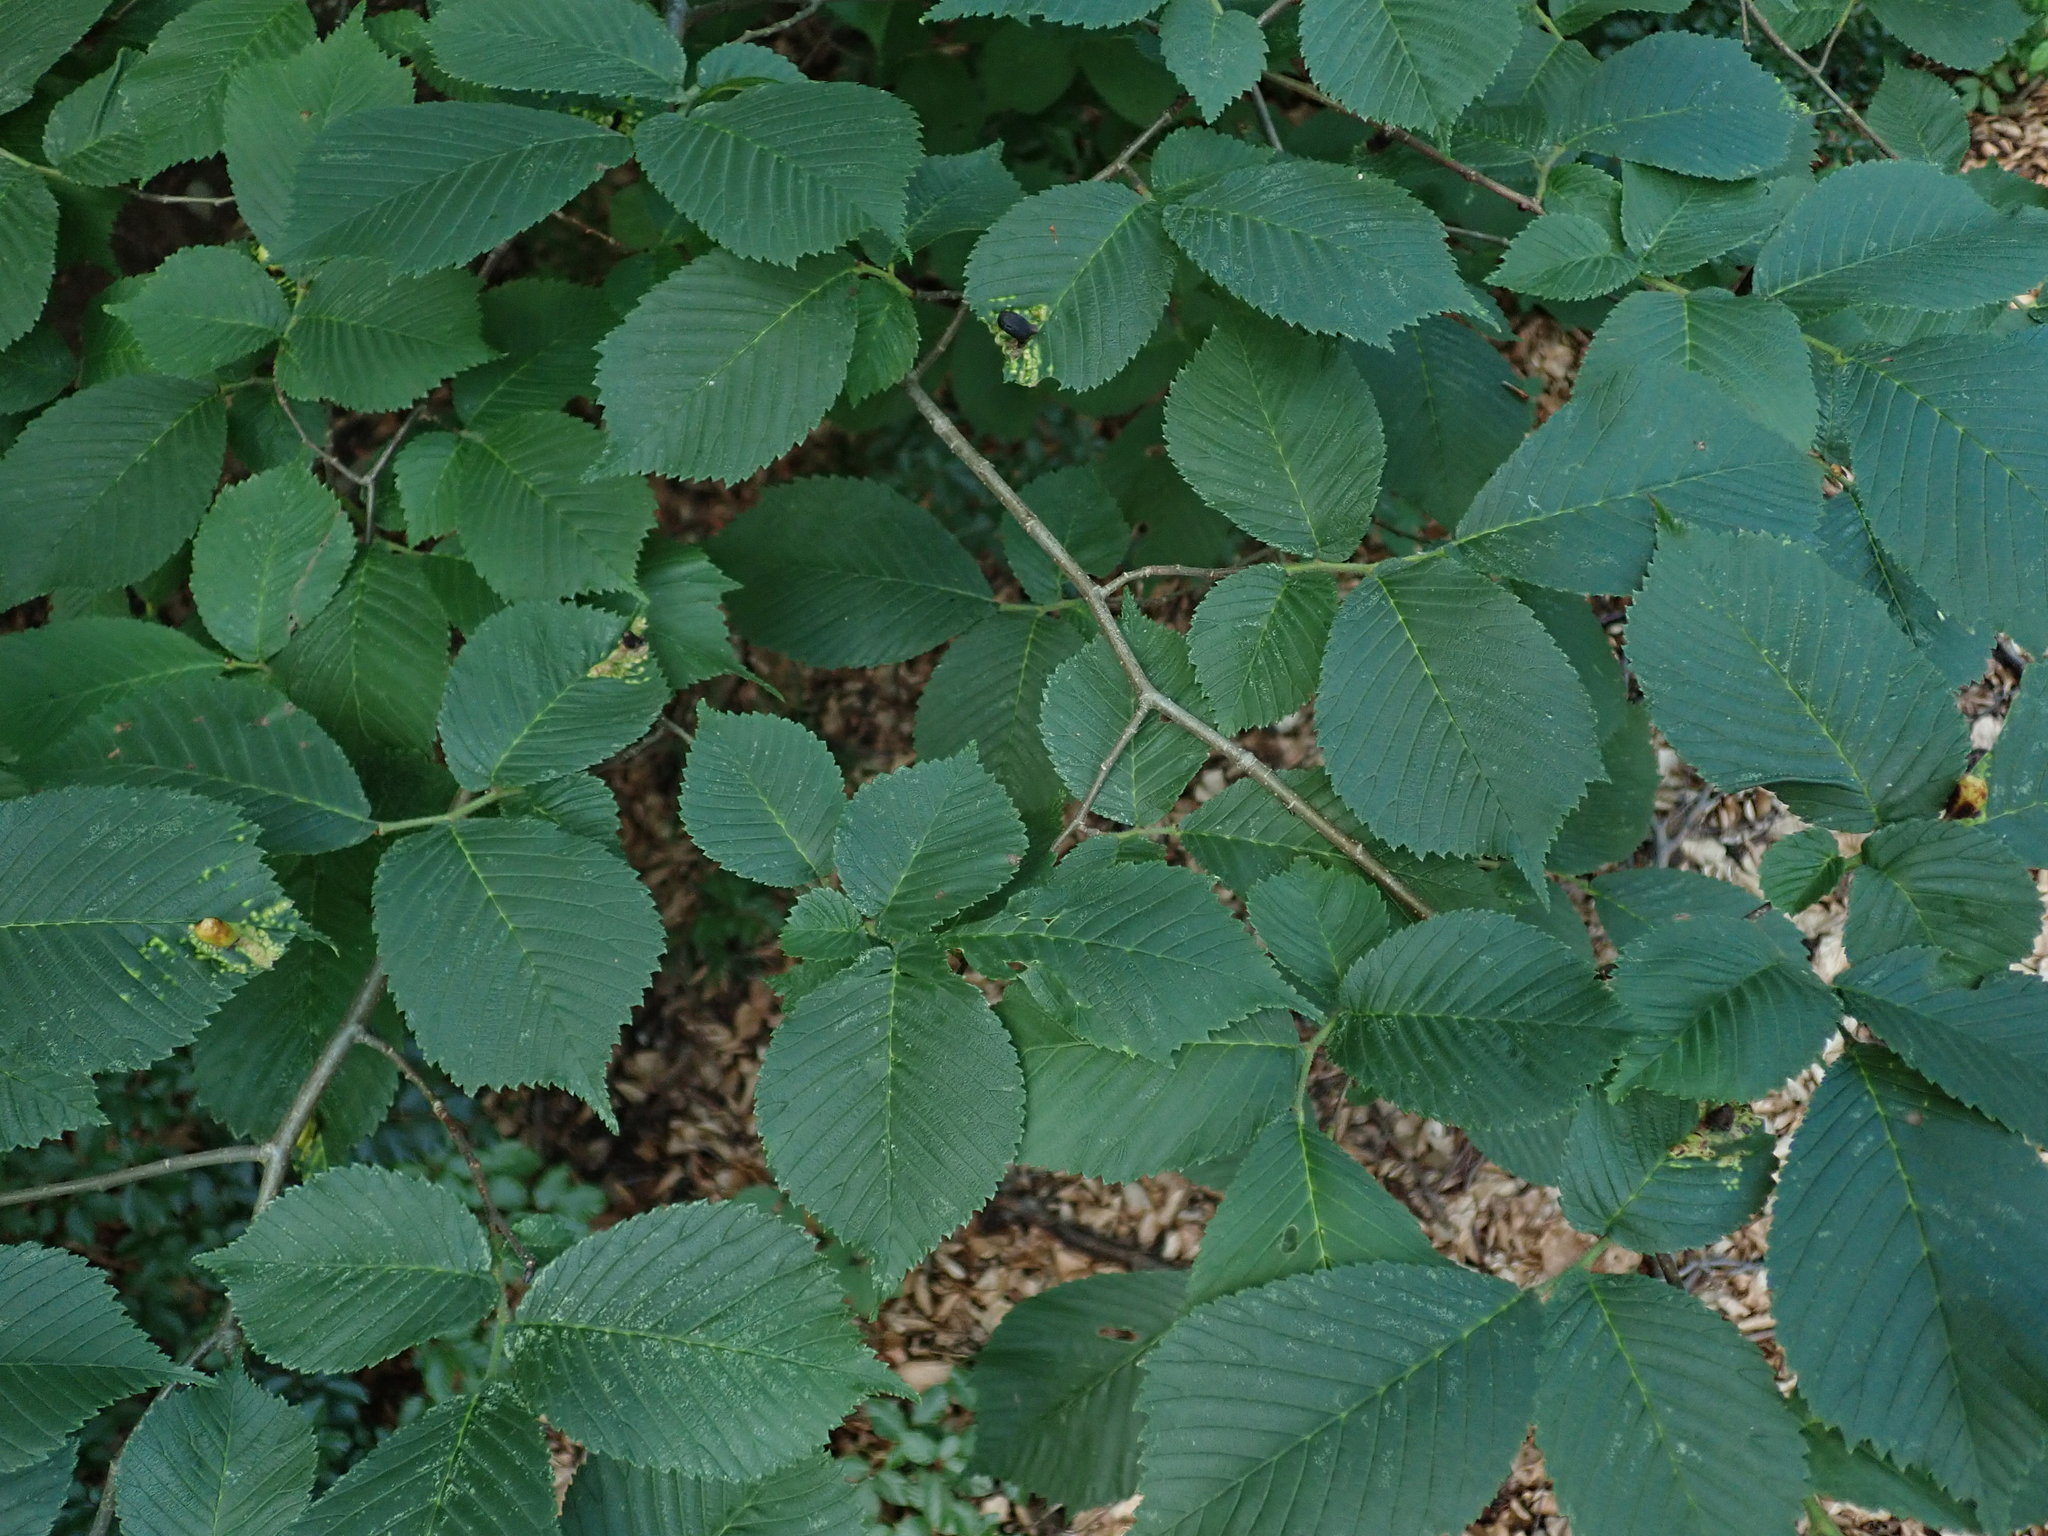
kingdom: Plantae
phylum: Tracheophyta
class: Magnoliopsida
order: Rosales
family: Ulmaceae
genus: Ulmus
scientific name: Ulmus glabra
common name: Wych elm
